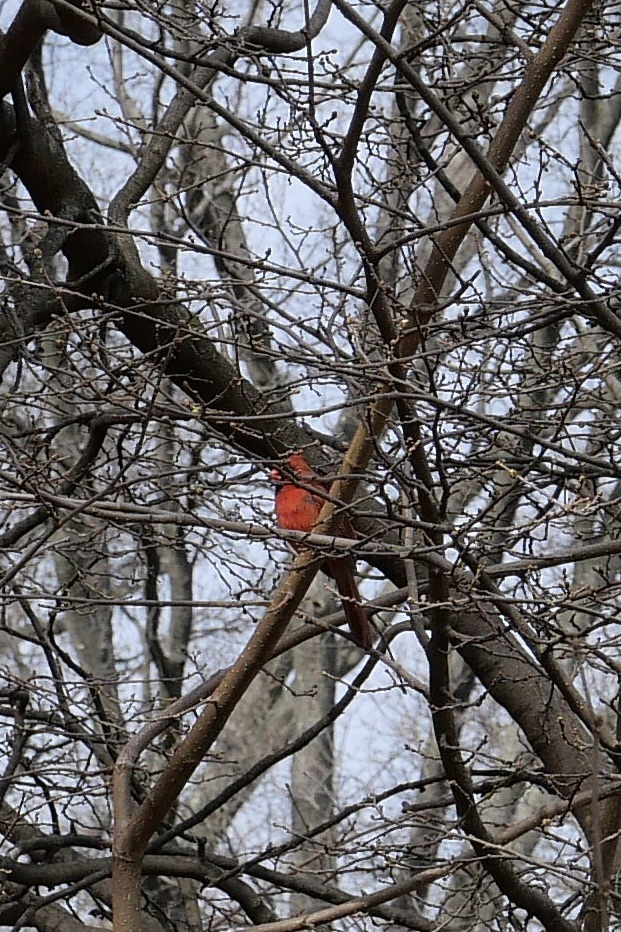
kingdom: Animalia
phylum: Chordata
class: Aves
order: Passeriformes
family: Cardinalidae
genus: Cardinalis
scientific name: Cardinalis cardinalis
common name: Northern cardinal
